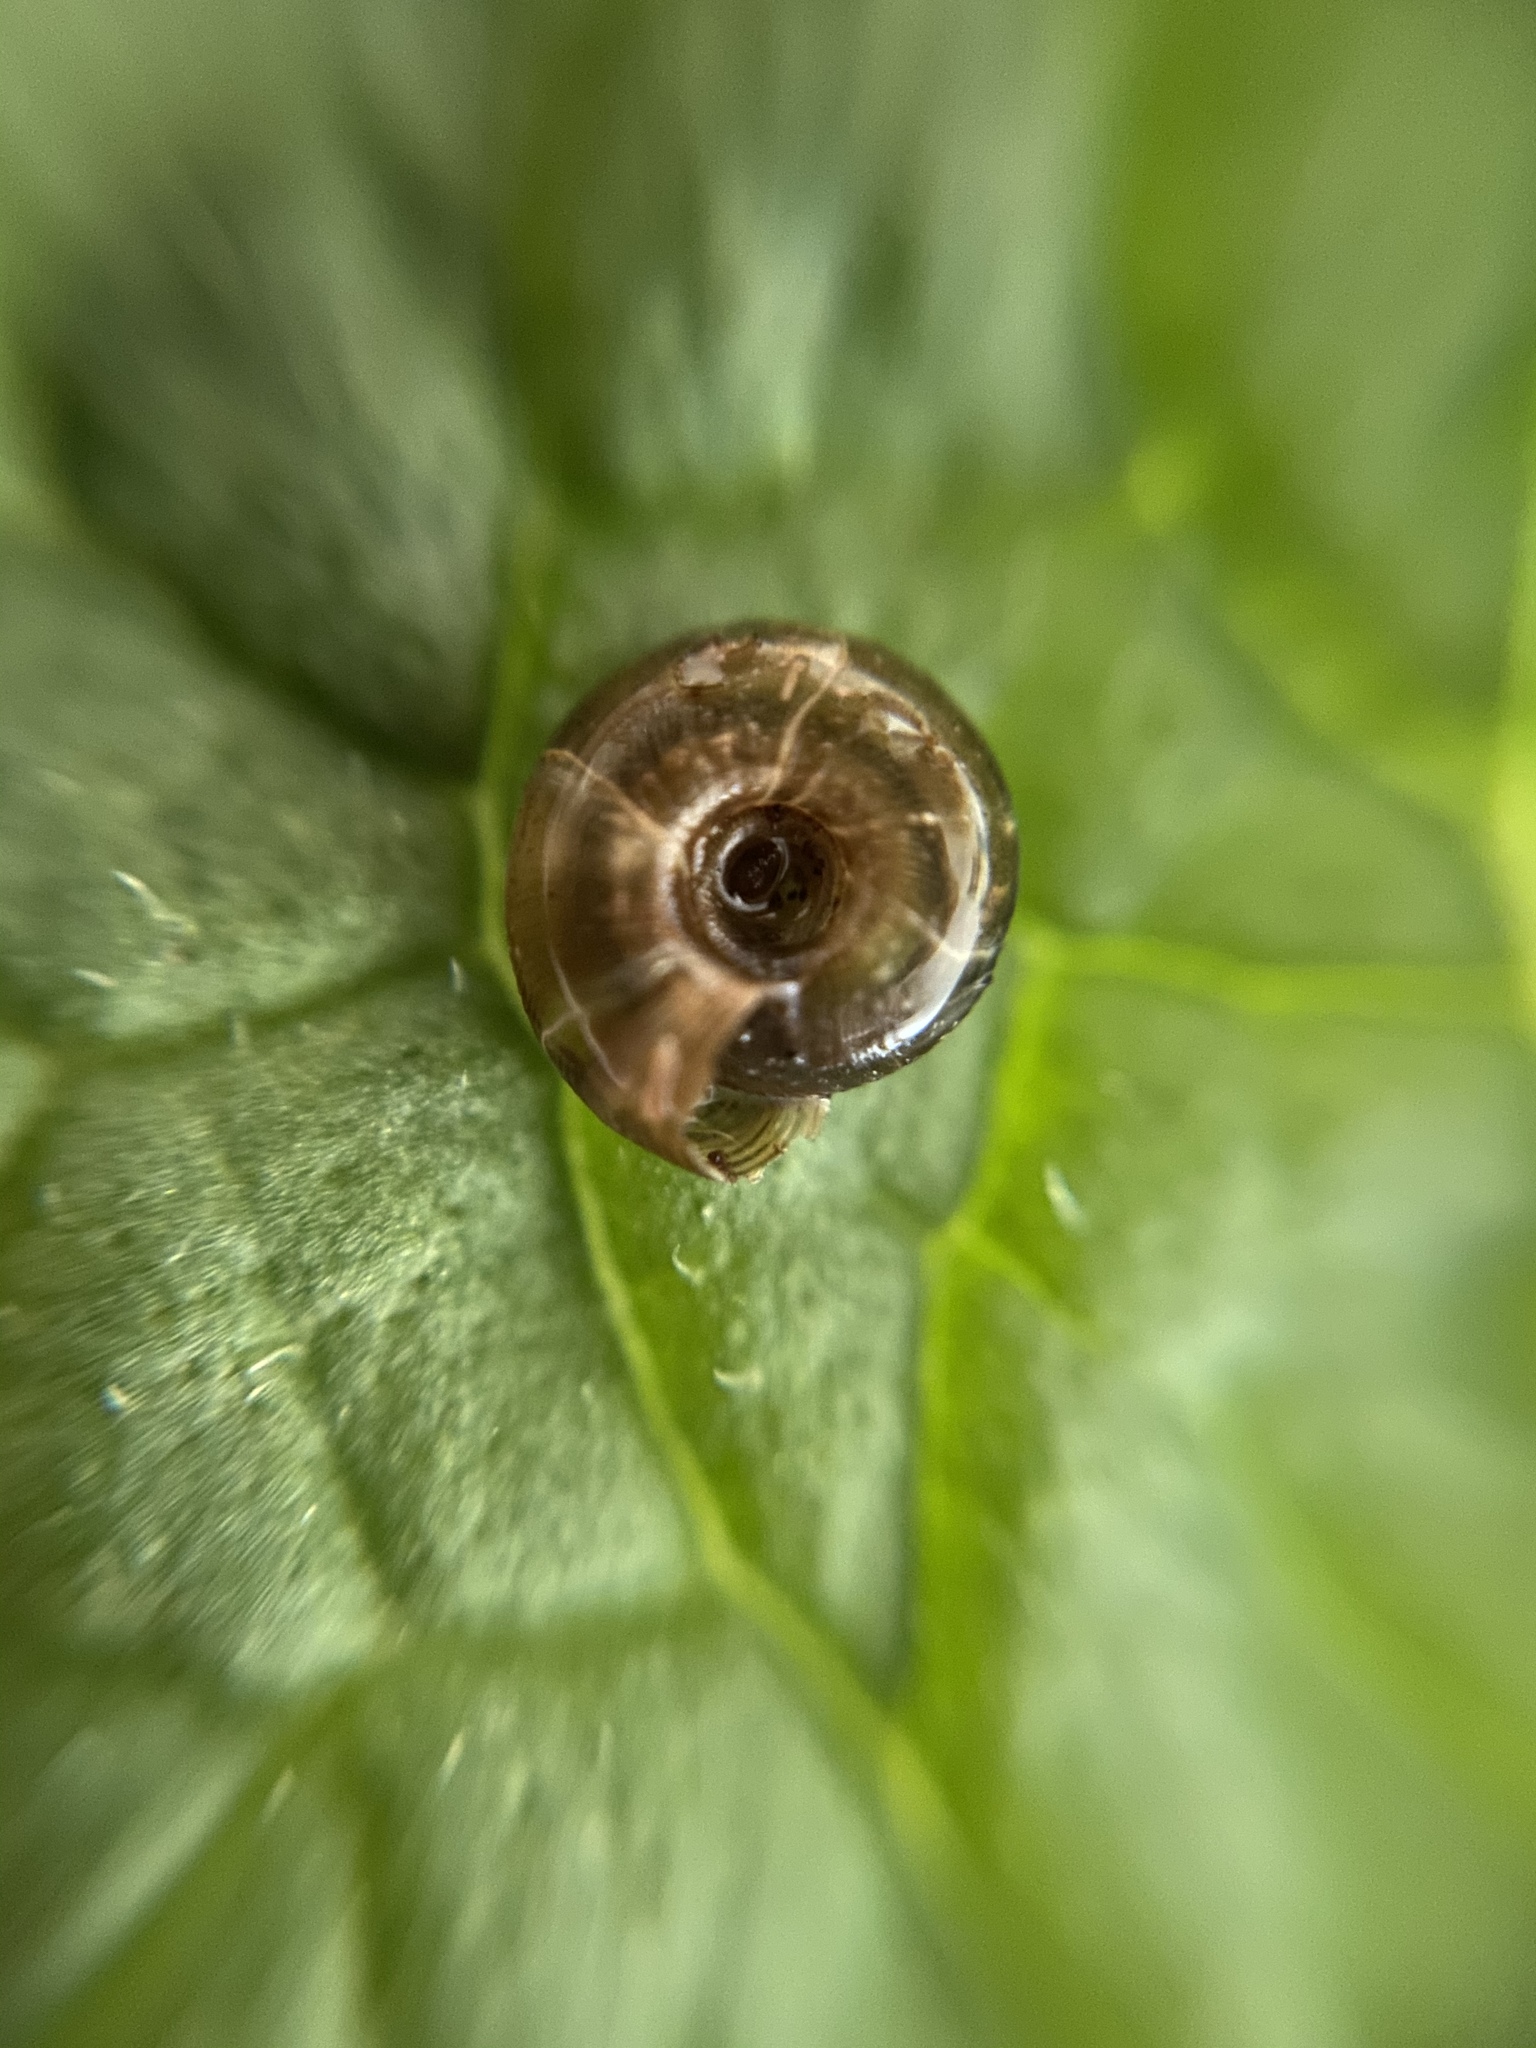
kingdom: Animalia
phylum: Mollusca
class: Gastropoda
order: Stylommatophora
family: Discidae
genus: Discus
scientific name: Discus rotundatus
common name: Rounded snail
